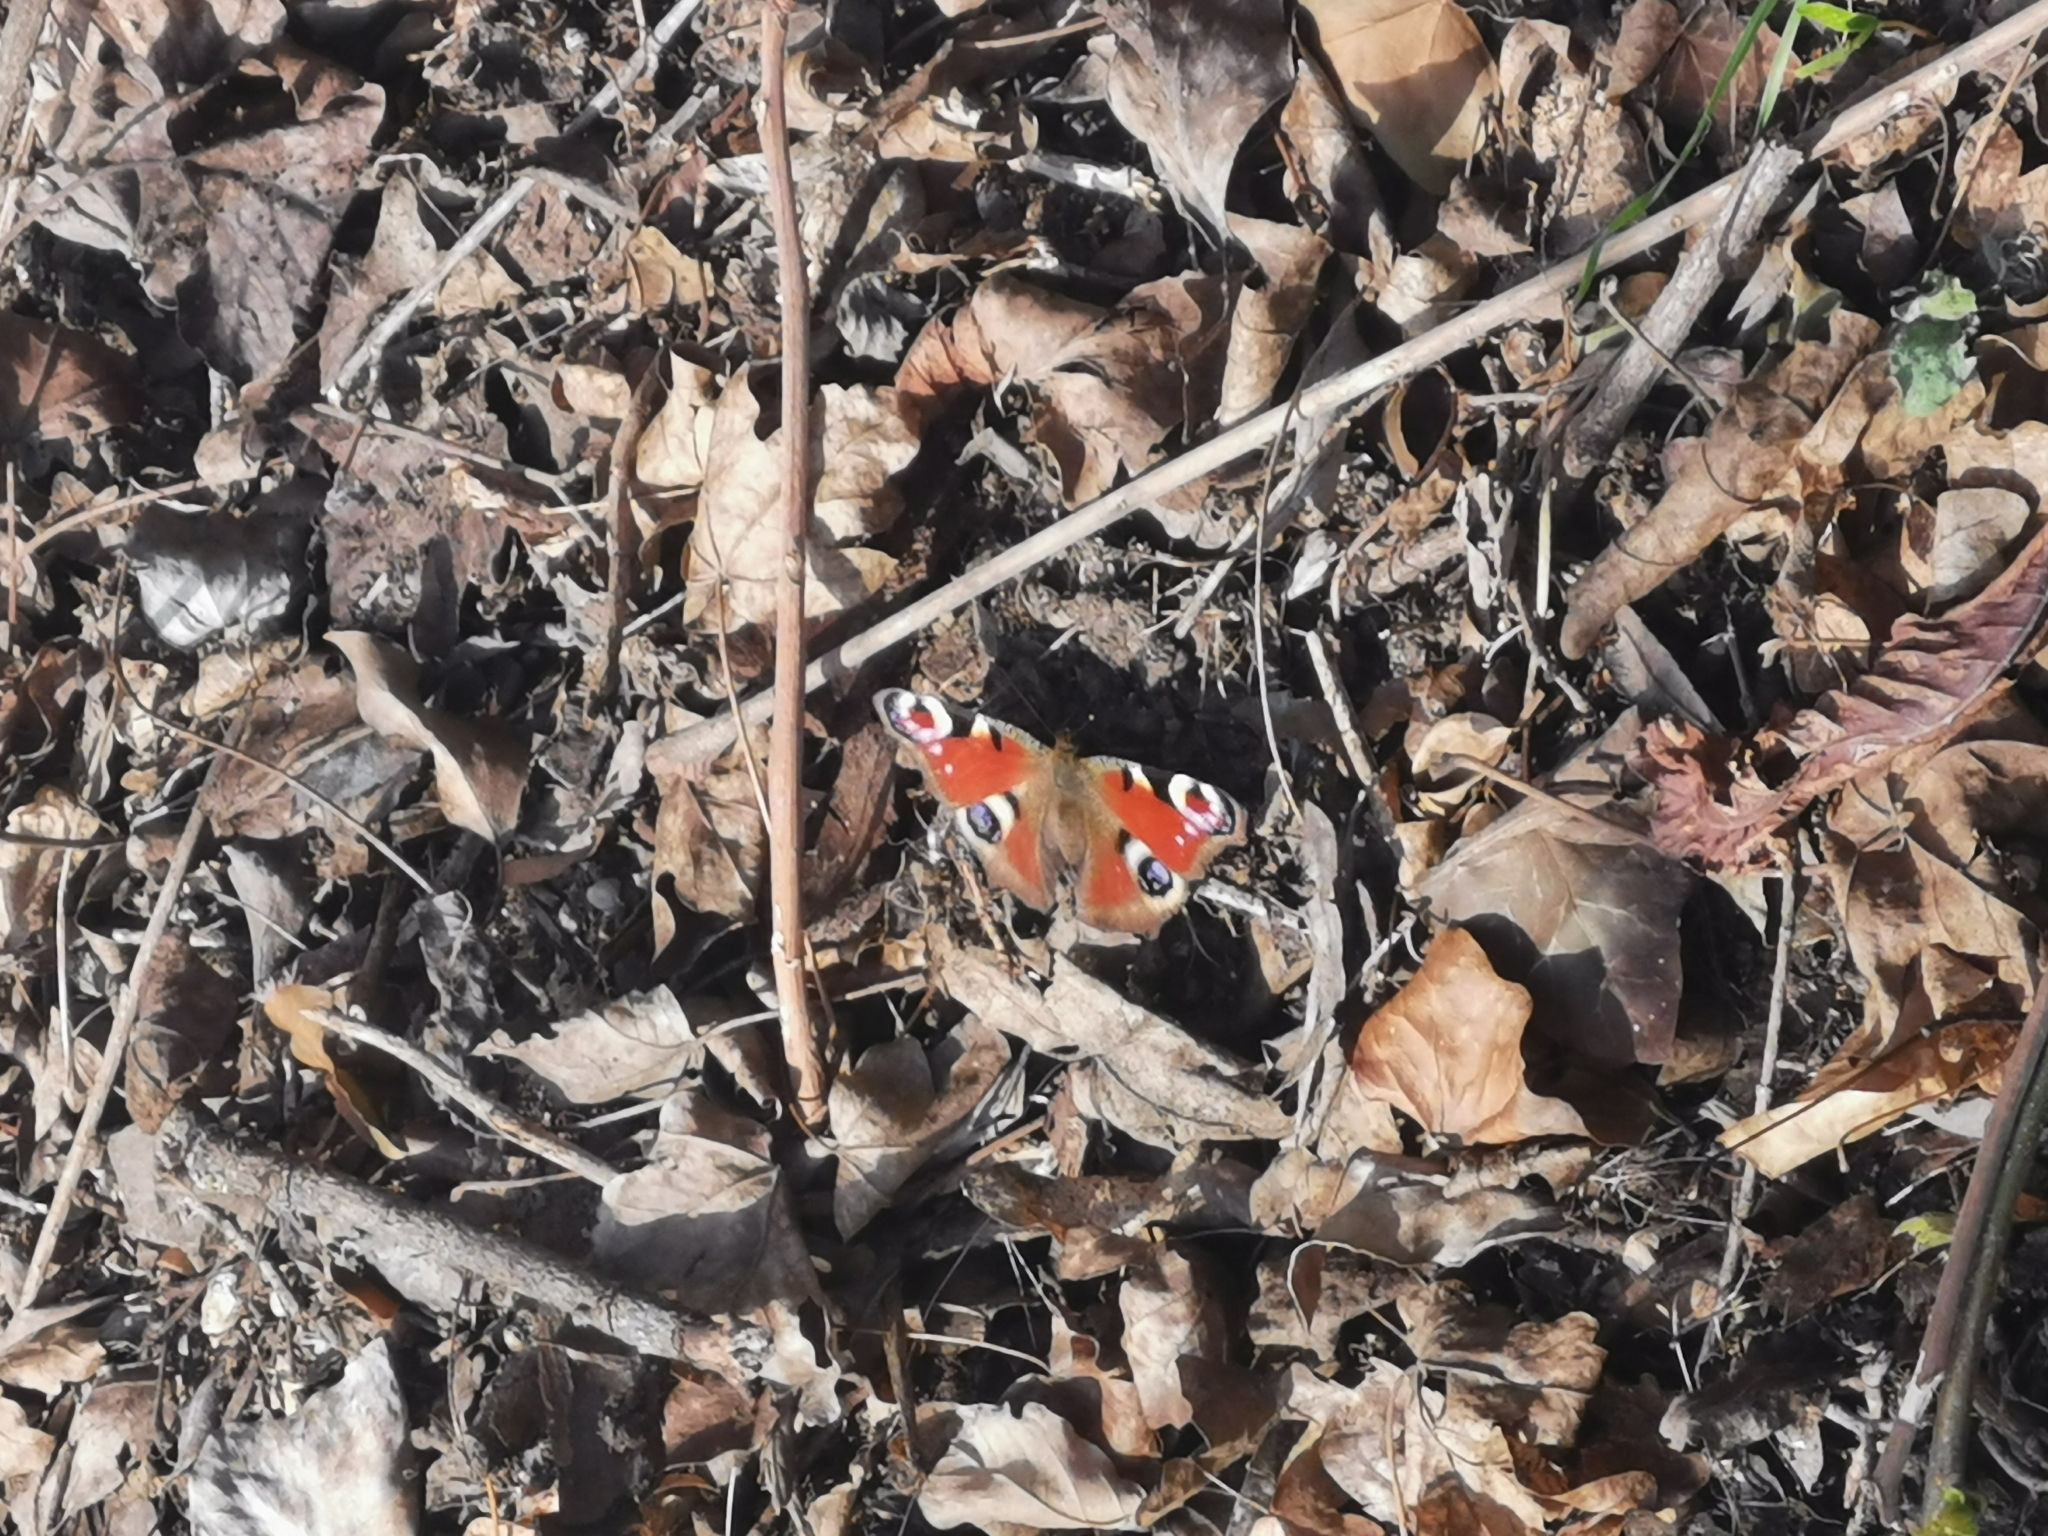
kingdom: Animalia
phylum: Arthropoda
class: Insecta
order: Lepidoptera
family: Nymphalidae
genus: Aglais
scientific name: Aglais io
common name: Peacock
